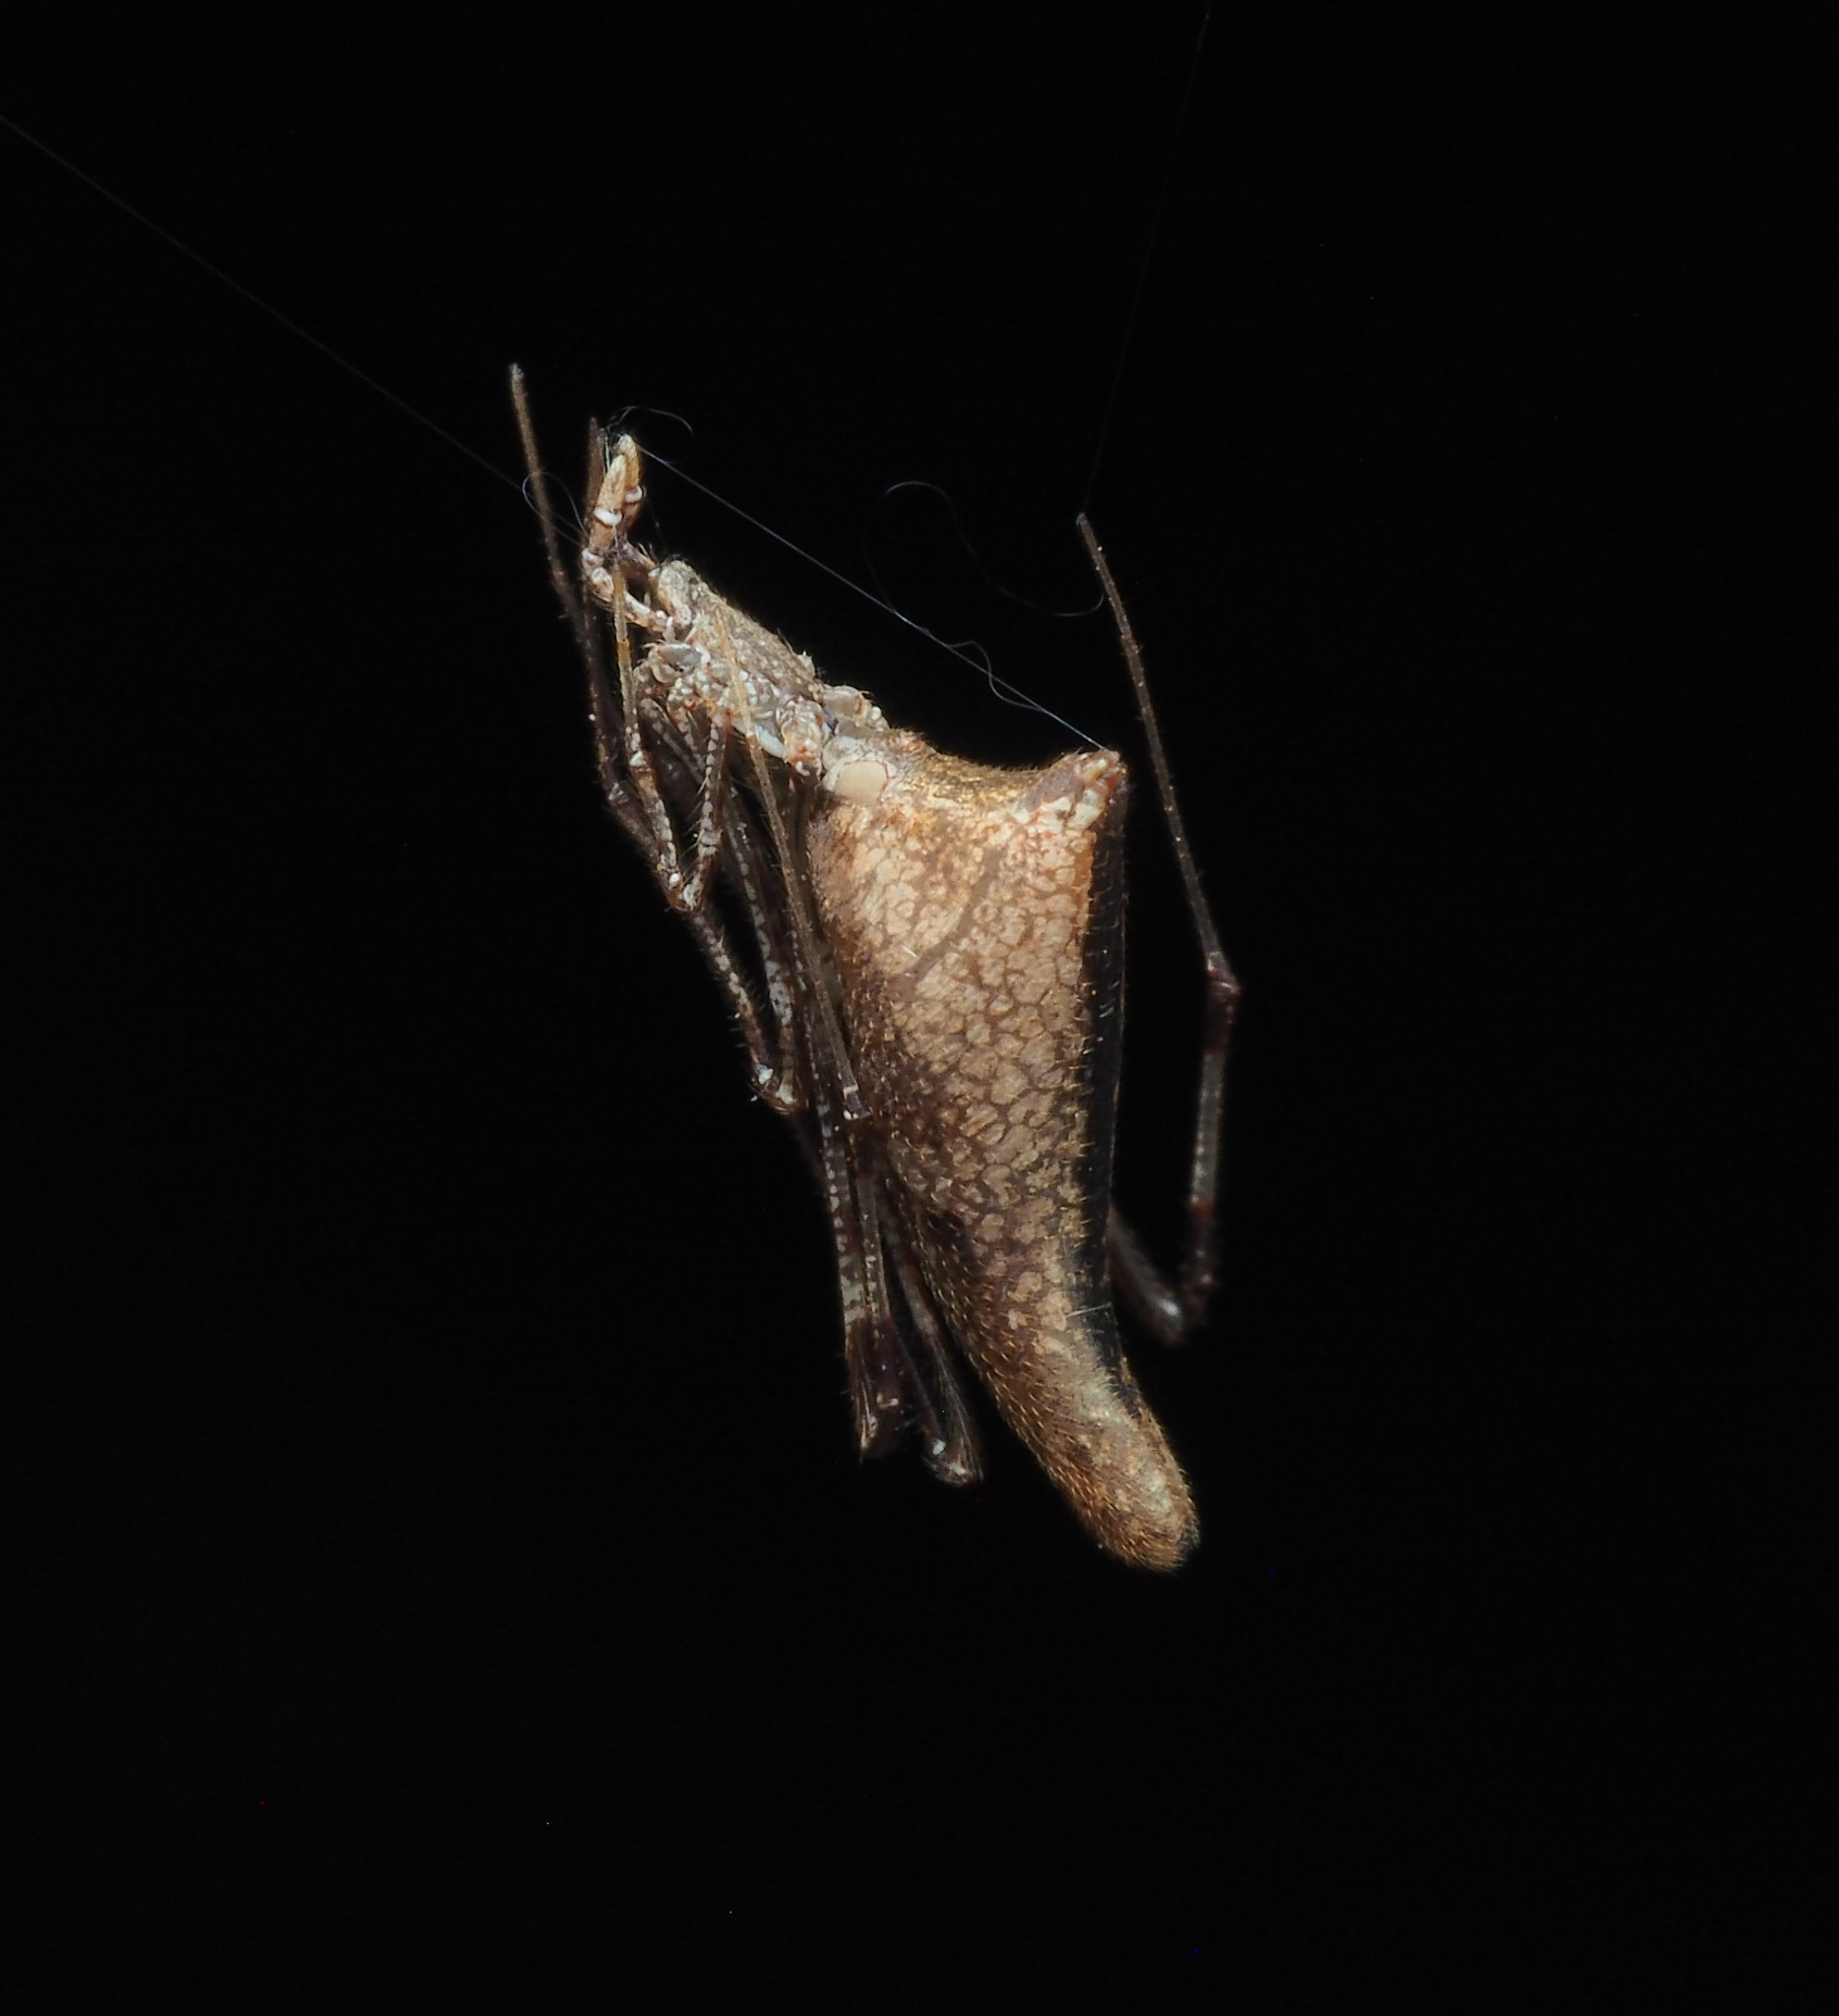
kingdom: Animalia
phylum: Arthropoda
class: Arachnida
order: Araneae
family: Theridiidae
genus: Rhomphaea
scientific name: Rhomphaea
